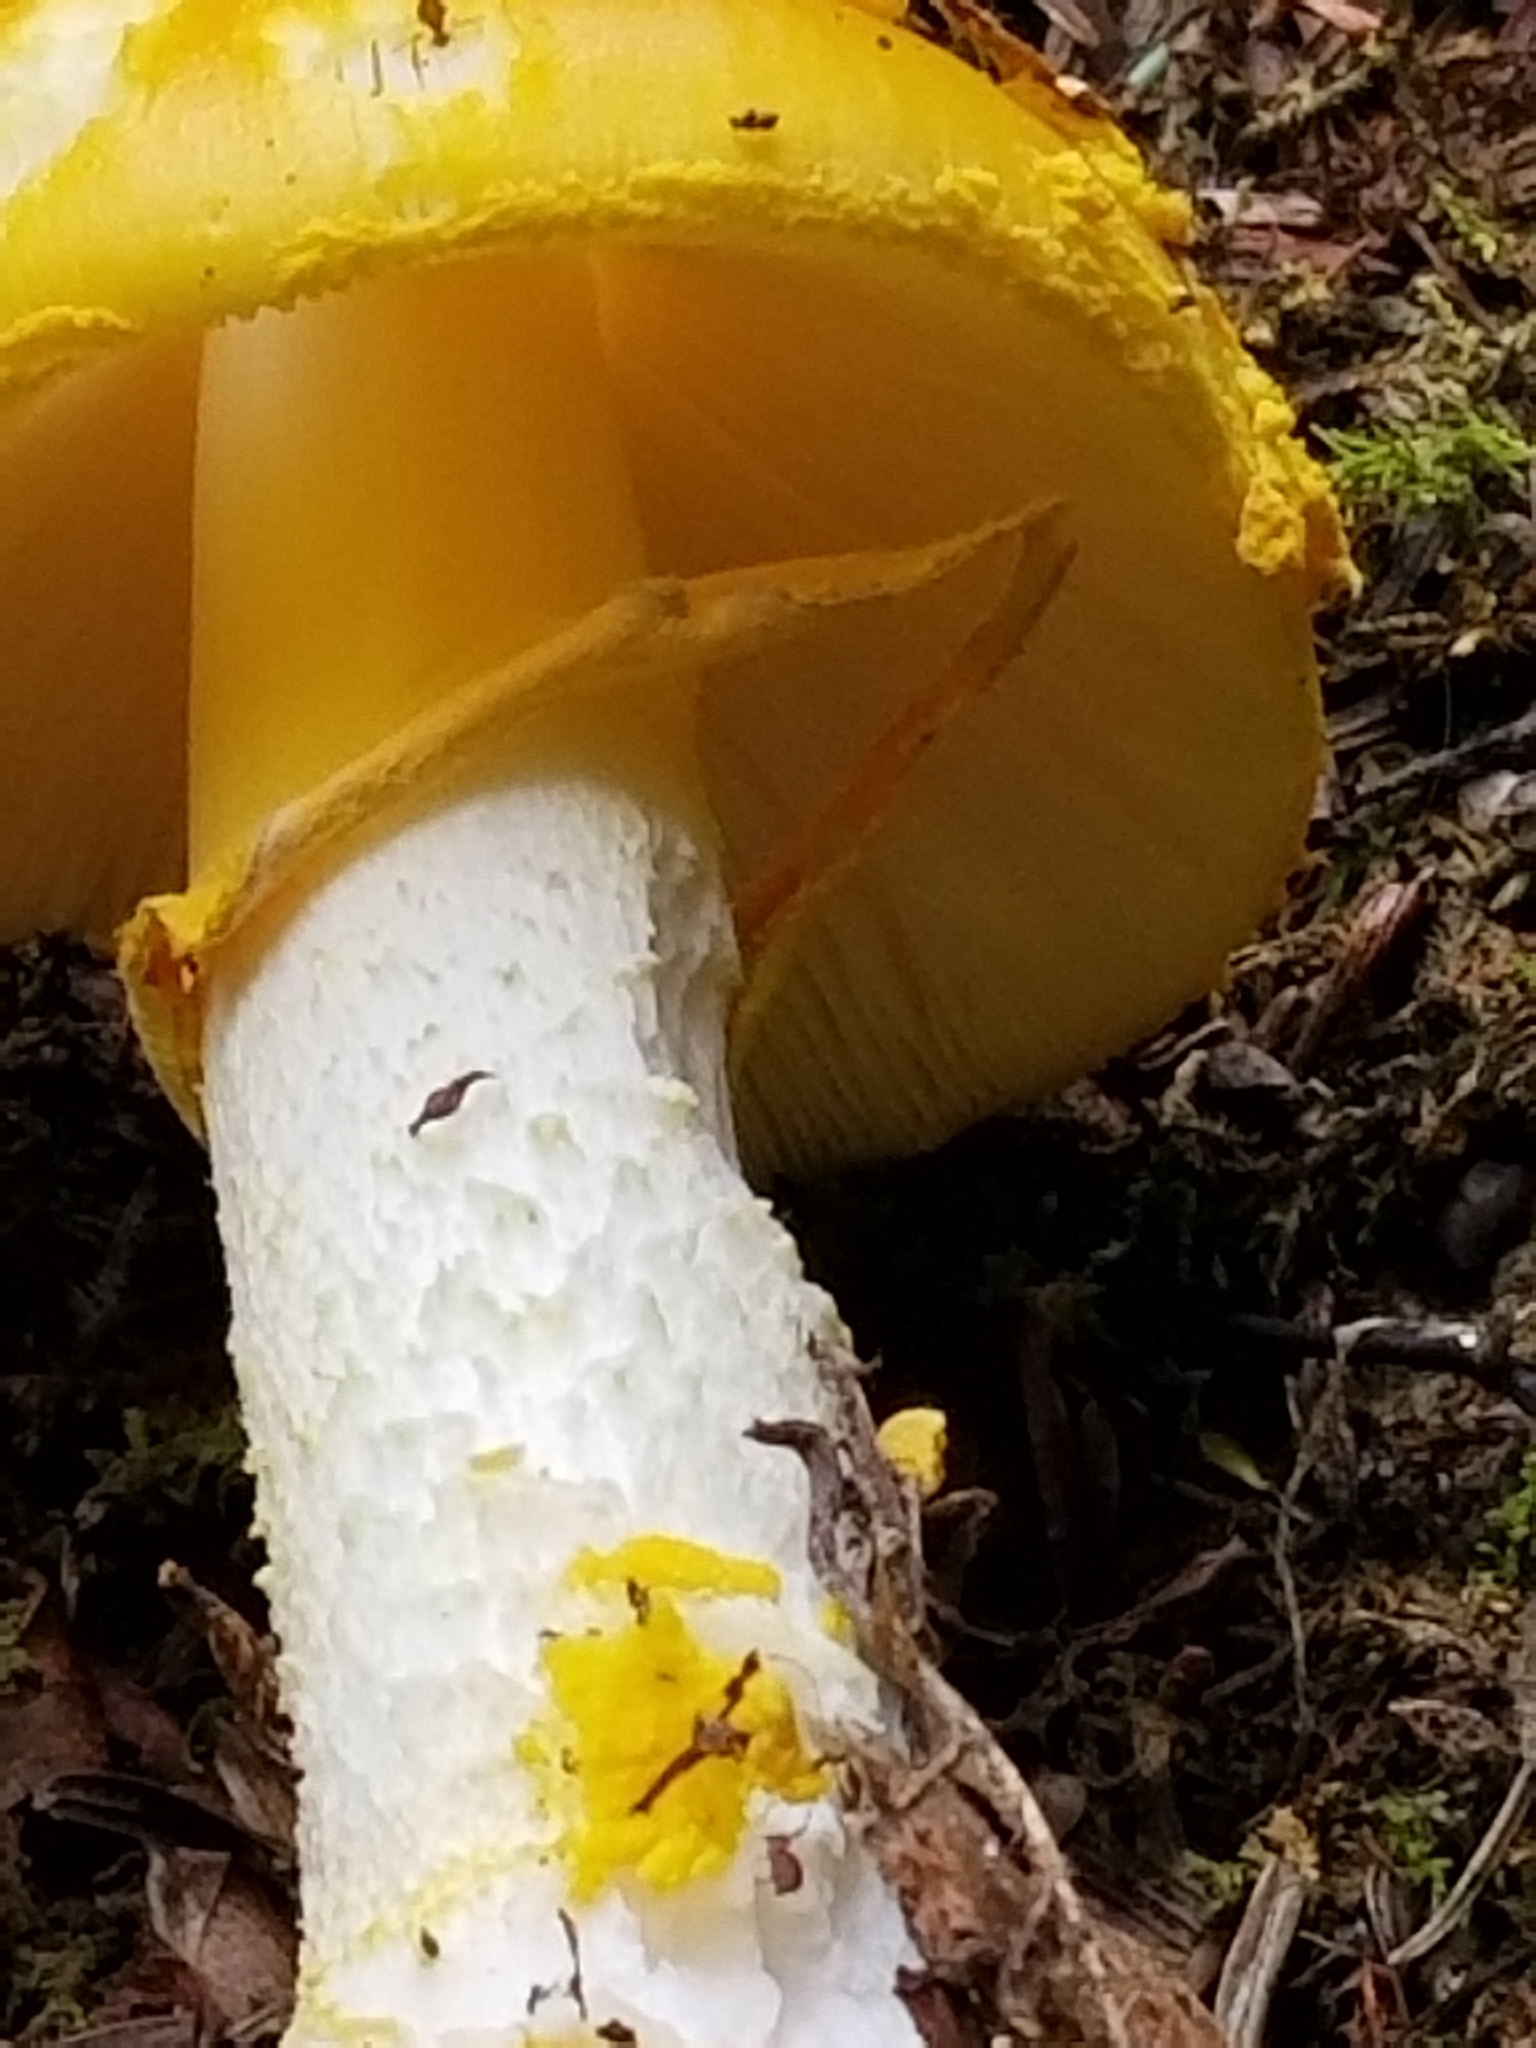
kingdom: Fungi
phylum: Basidiomycota
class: Agaricomycetes
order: Agaricales
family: Amanitaceae
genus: Amanita
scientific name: Amanita flavorubens
